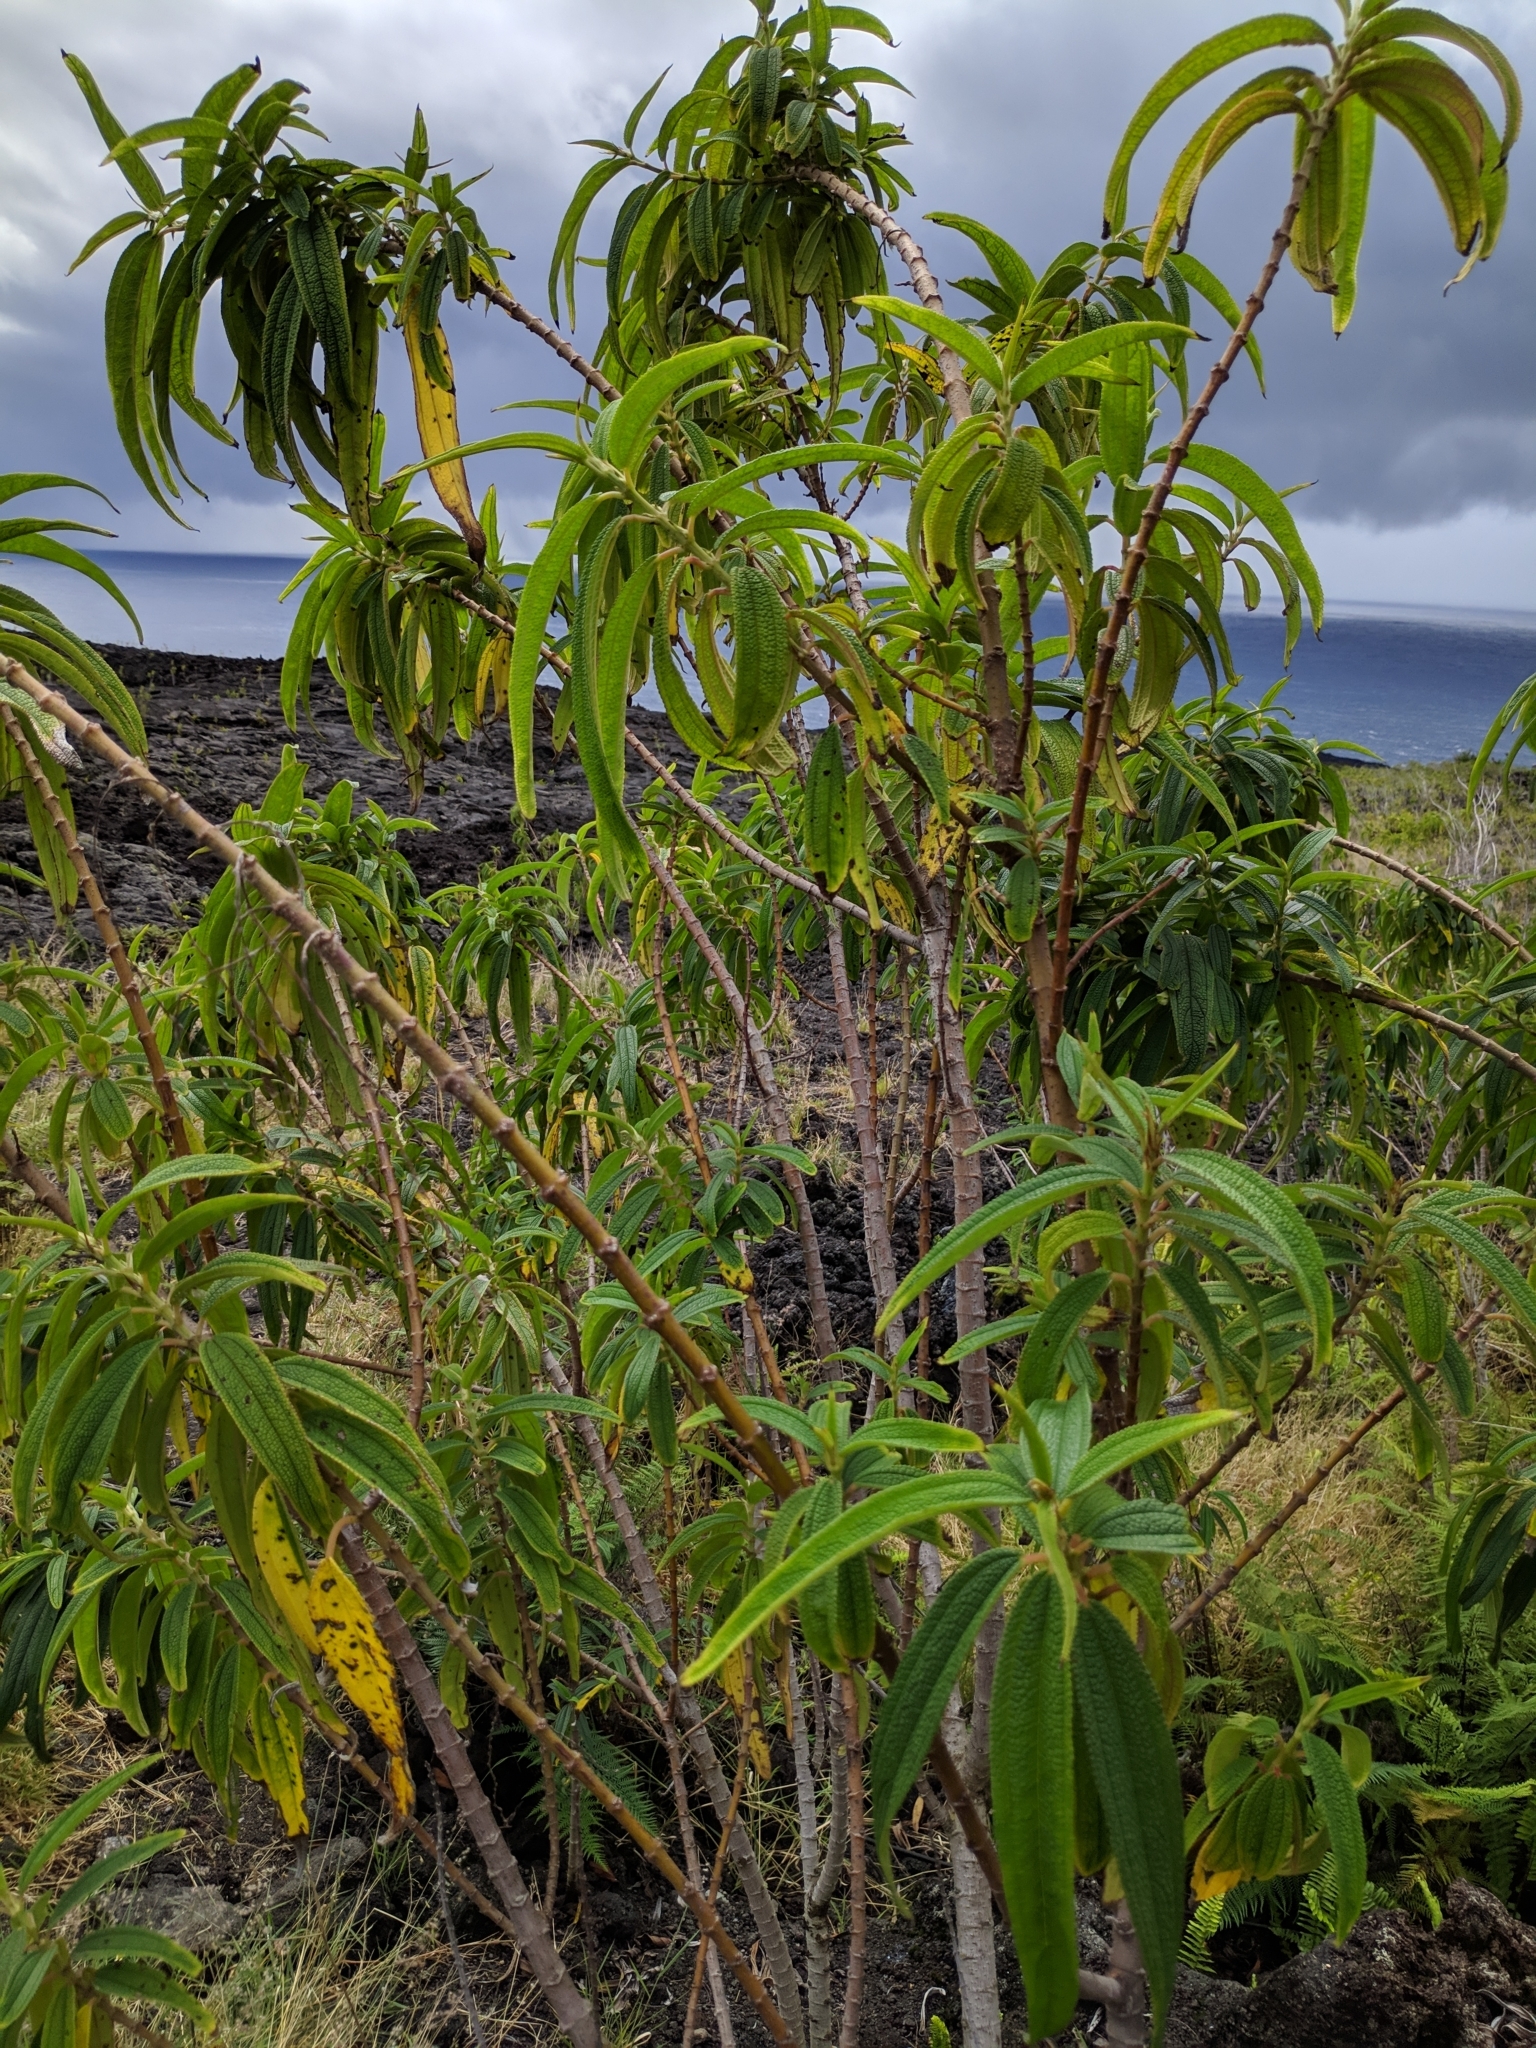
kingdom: Plantae
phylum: Tracheophyta
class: Magnoliopsida
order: Rosales
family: Urticaceae
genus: Boehmeria
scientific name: Boehmeria penduliflora
